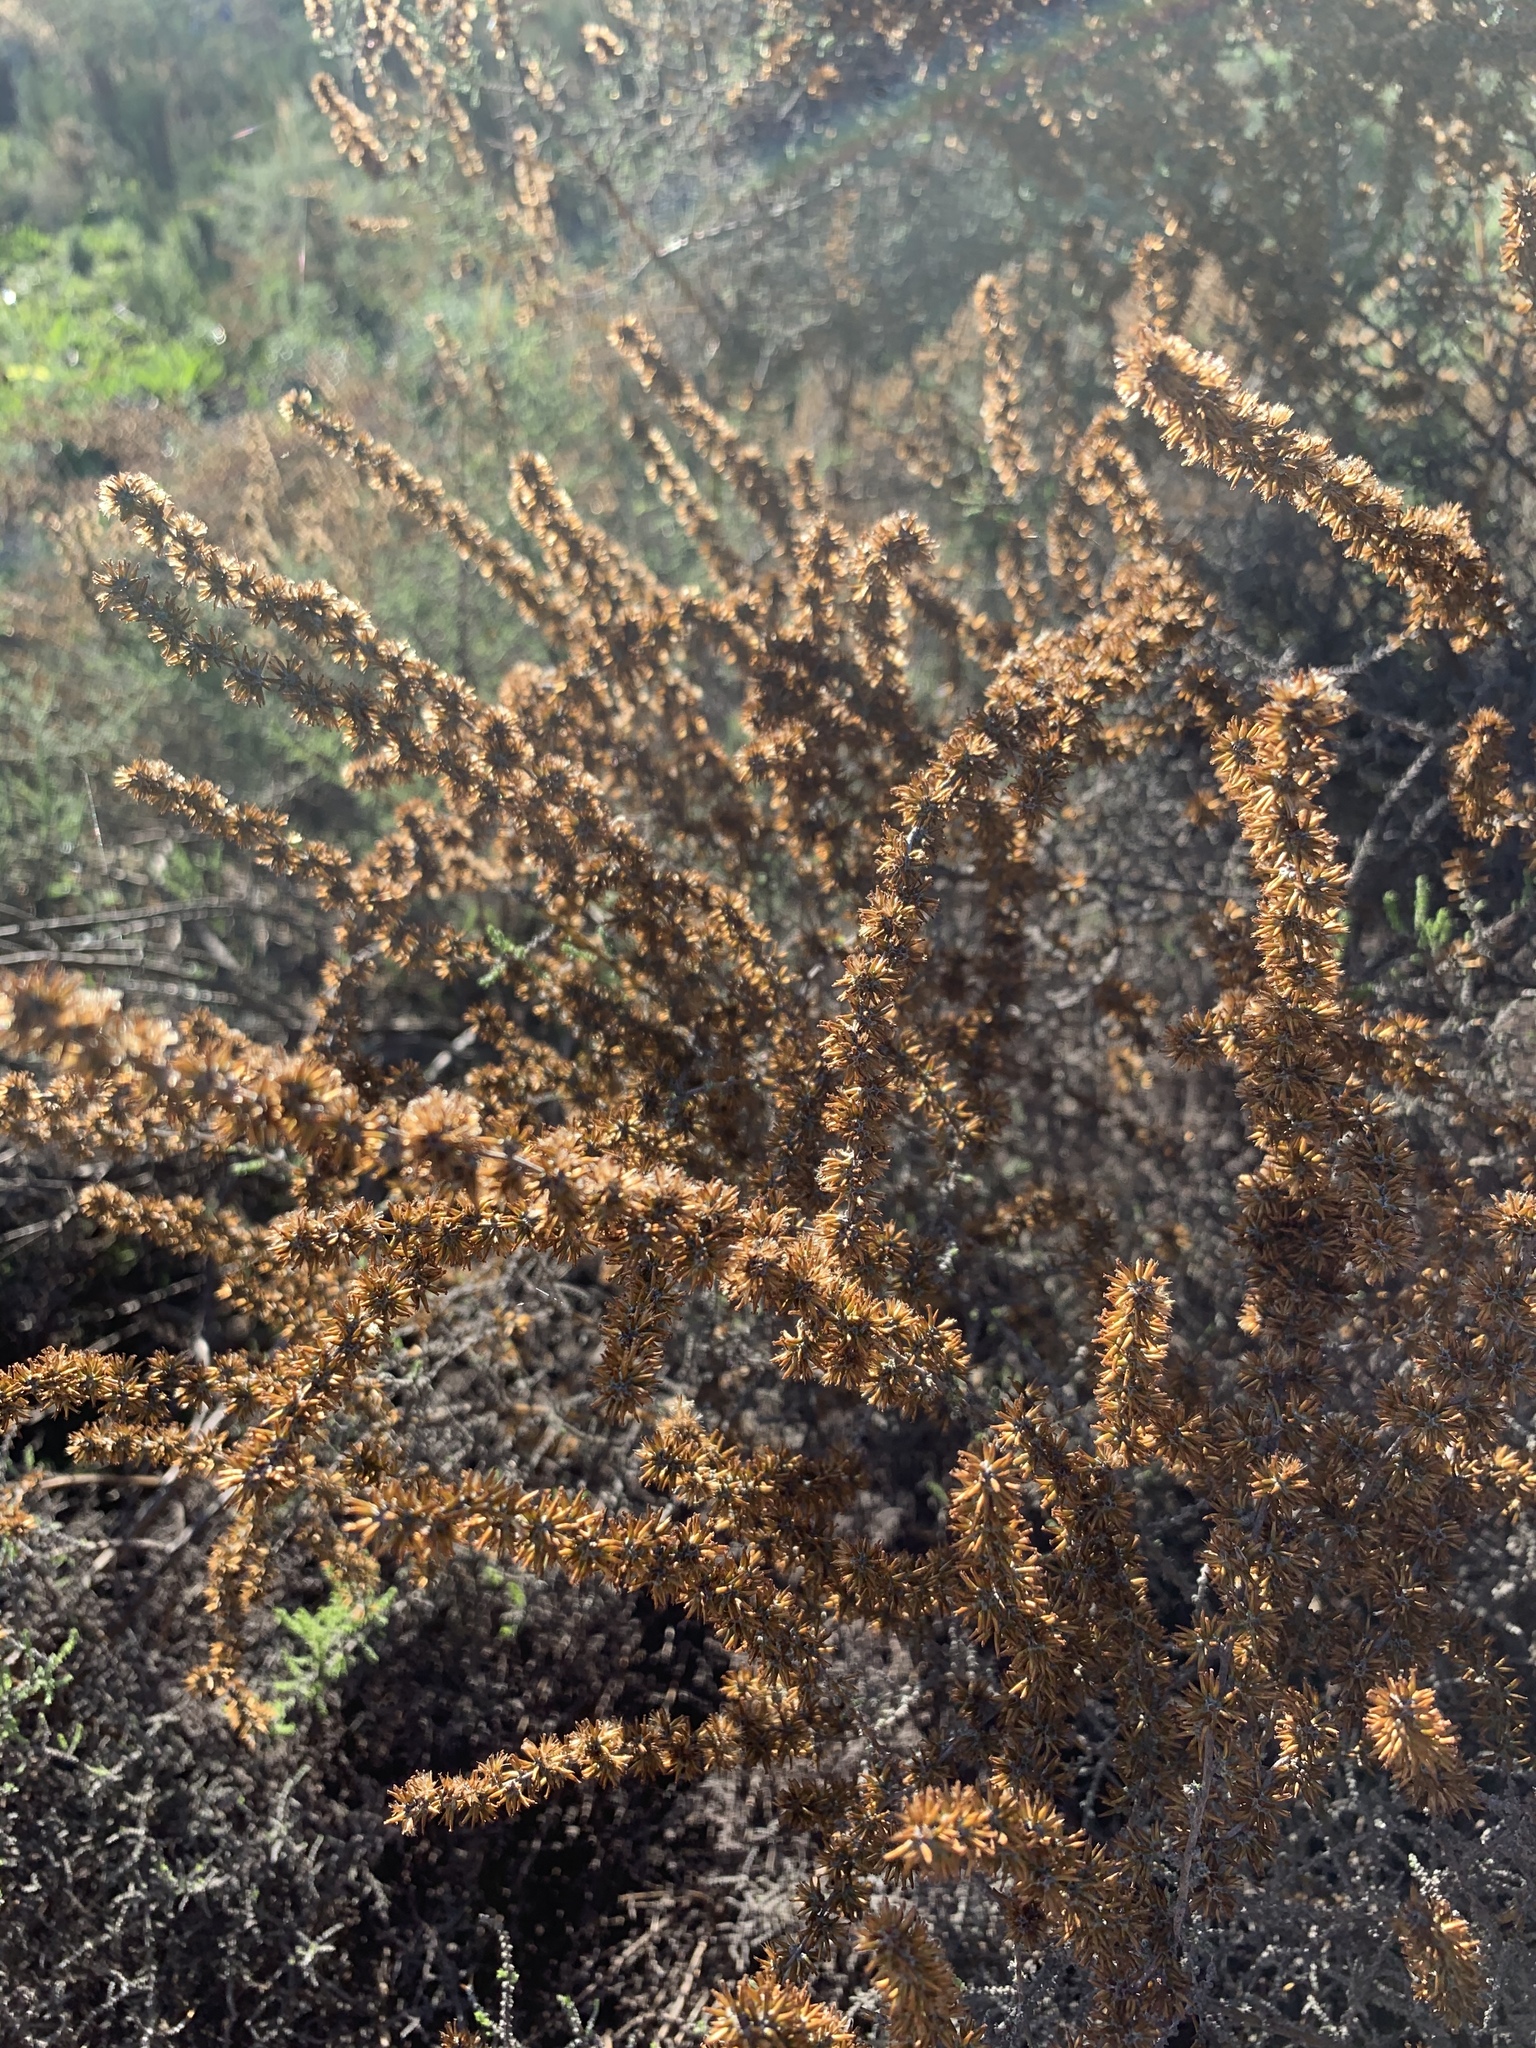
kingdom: Plantae
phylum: Tracheophyta
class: Magnoliopsida
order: Asterales
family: Asteraceae
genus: Seriphium
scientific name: Seriphium plumosum
